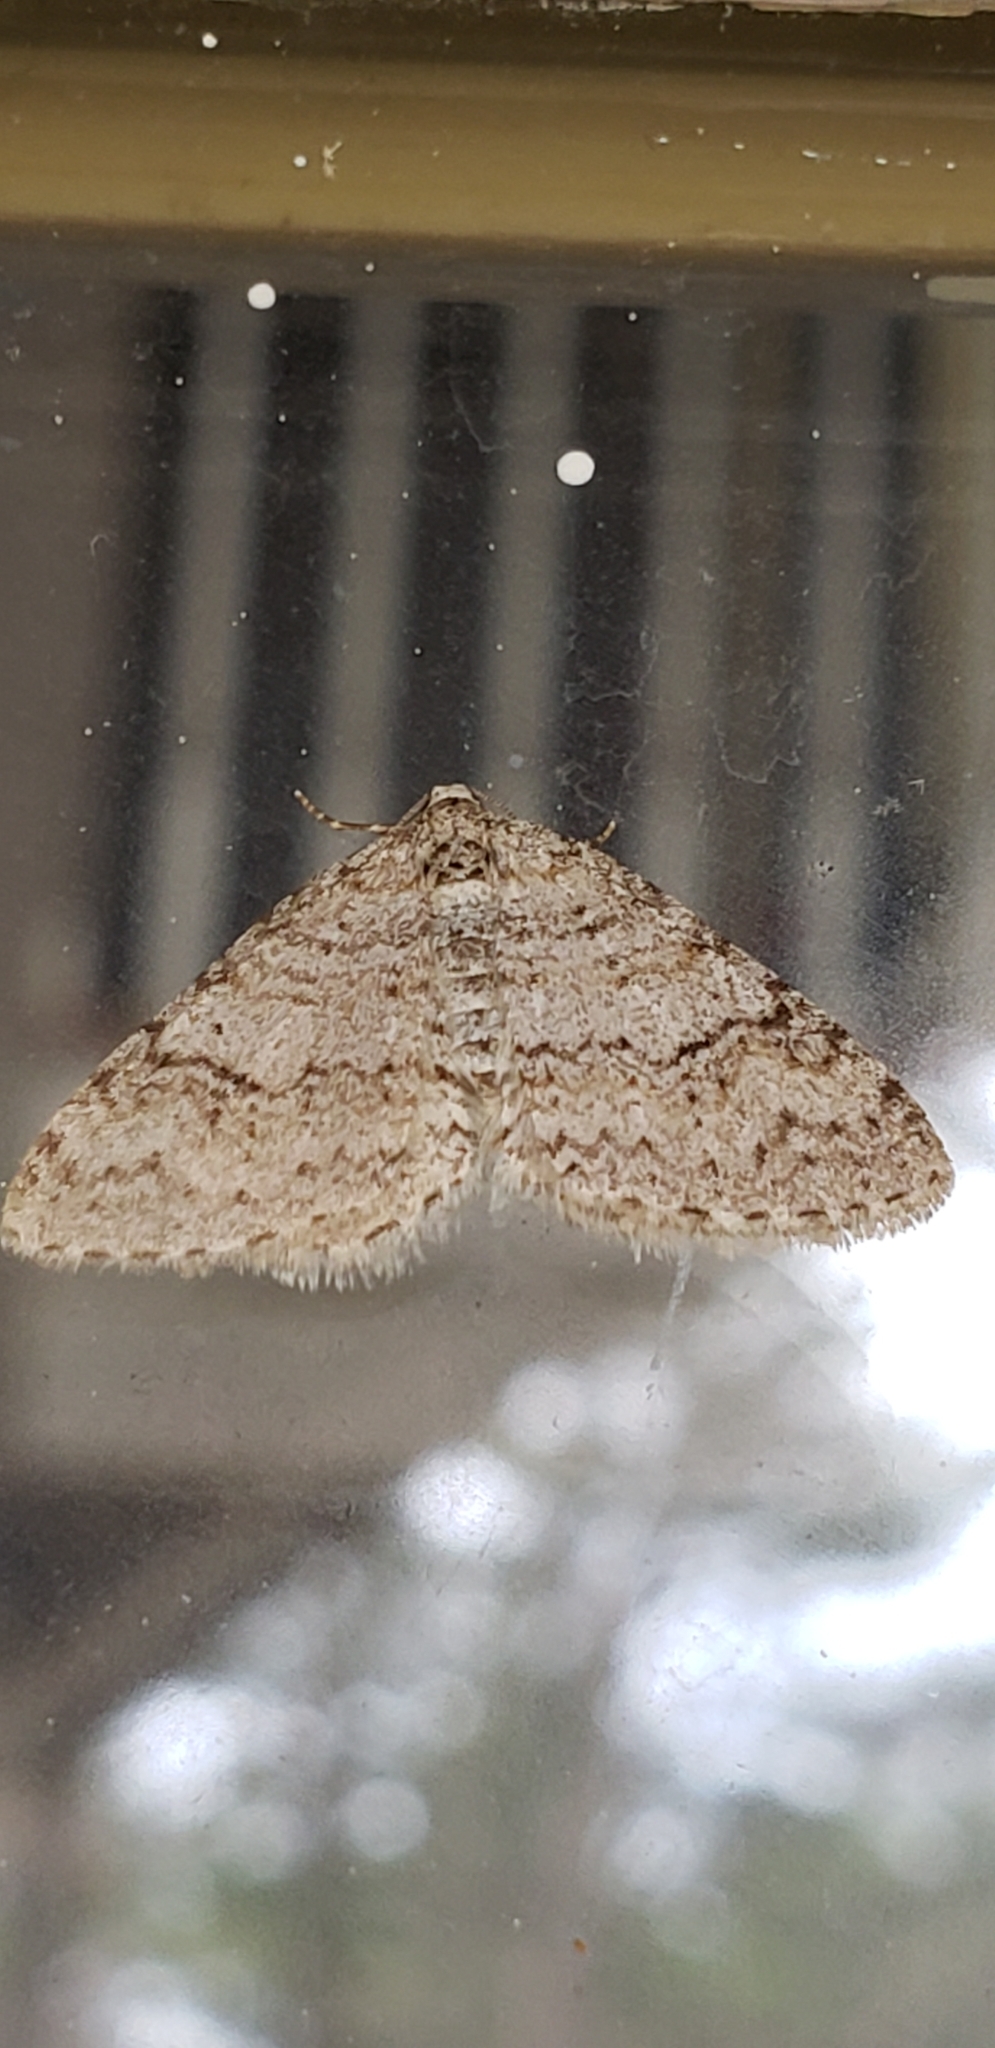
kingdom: Animalia
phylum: Arthropoda
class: Insecta
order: Lepidoptera
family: Geometridae
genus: Venusia
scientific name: Venusia comptaria
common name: Brown-shaded carpet
